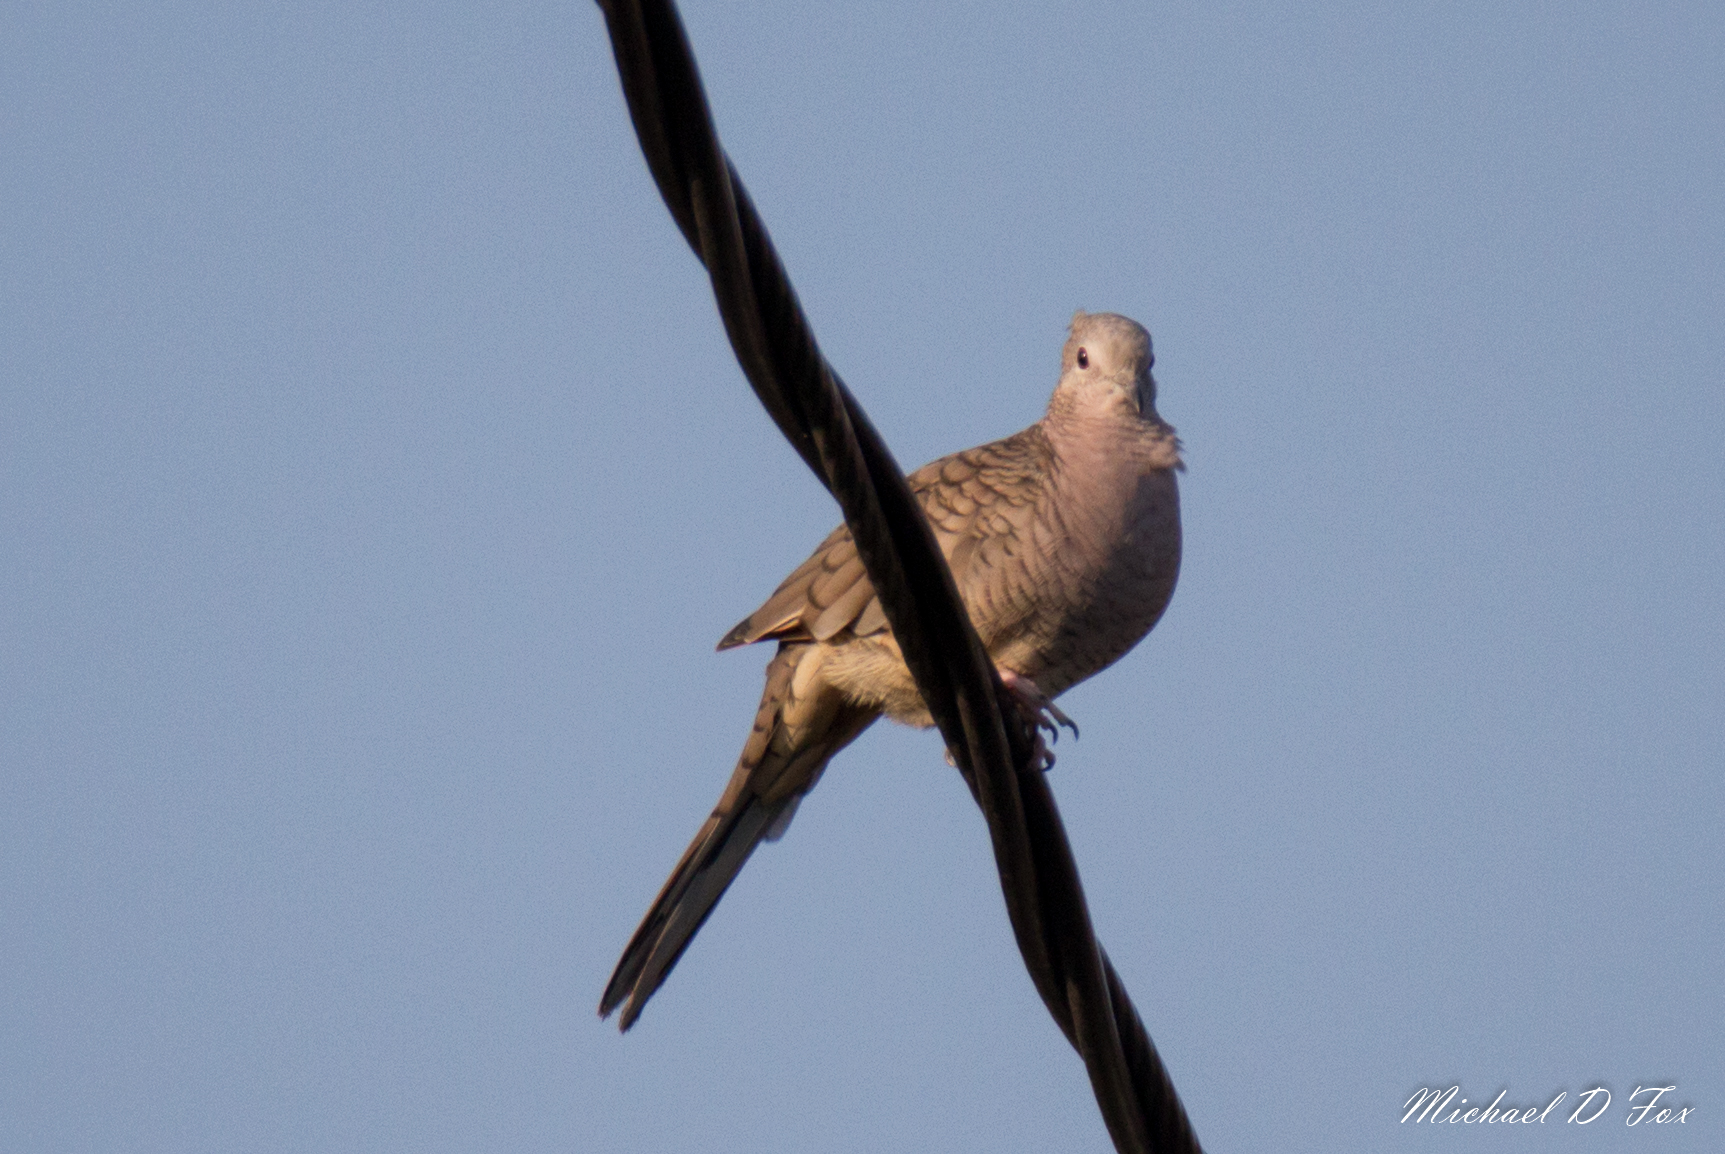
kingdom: Animalia
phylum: Chordata
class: Aves
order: Columbiformes
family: Columbidae
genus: Columbina
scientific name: Columbina inca
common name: Inca dove
